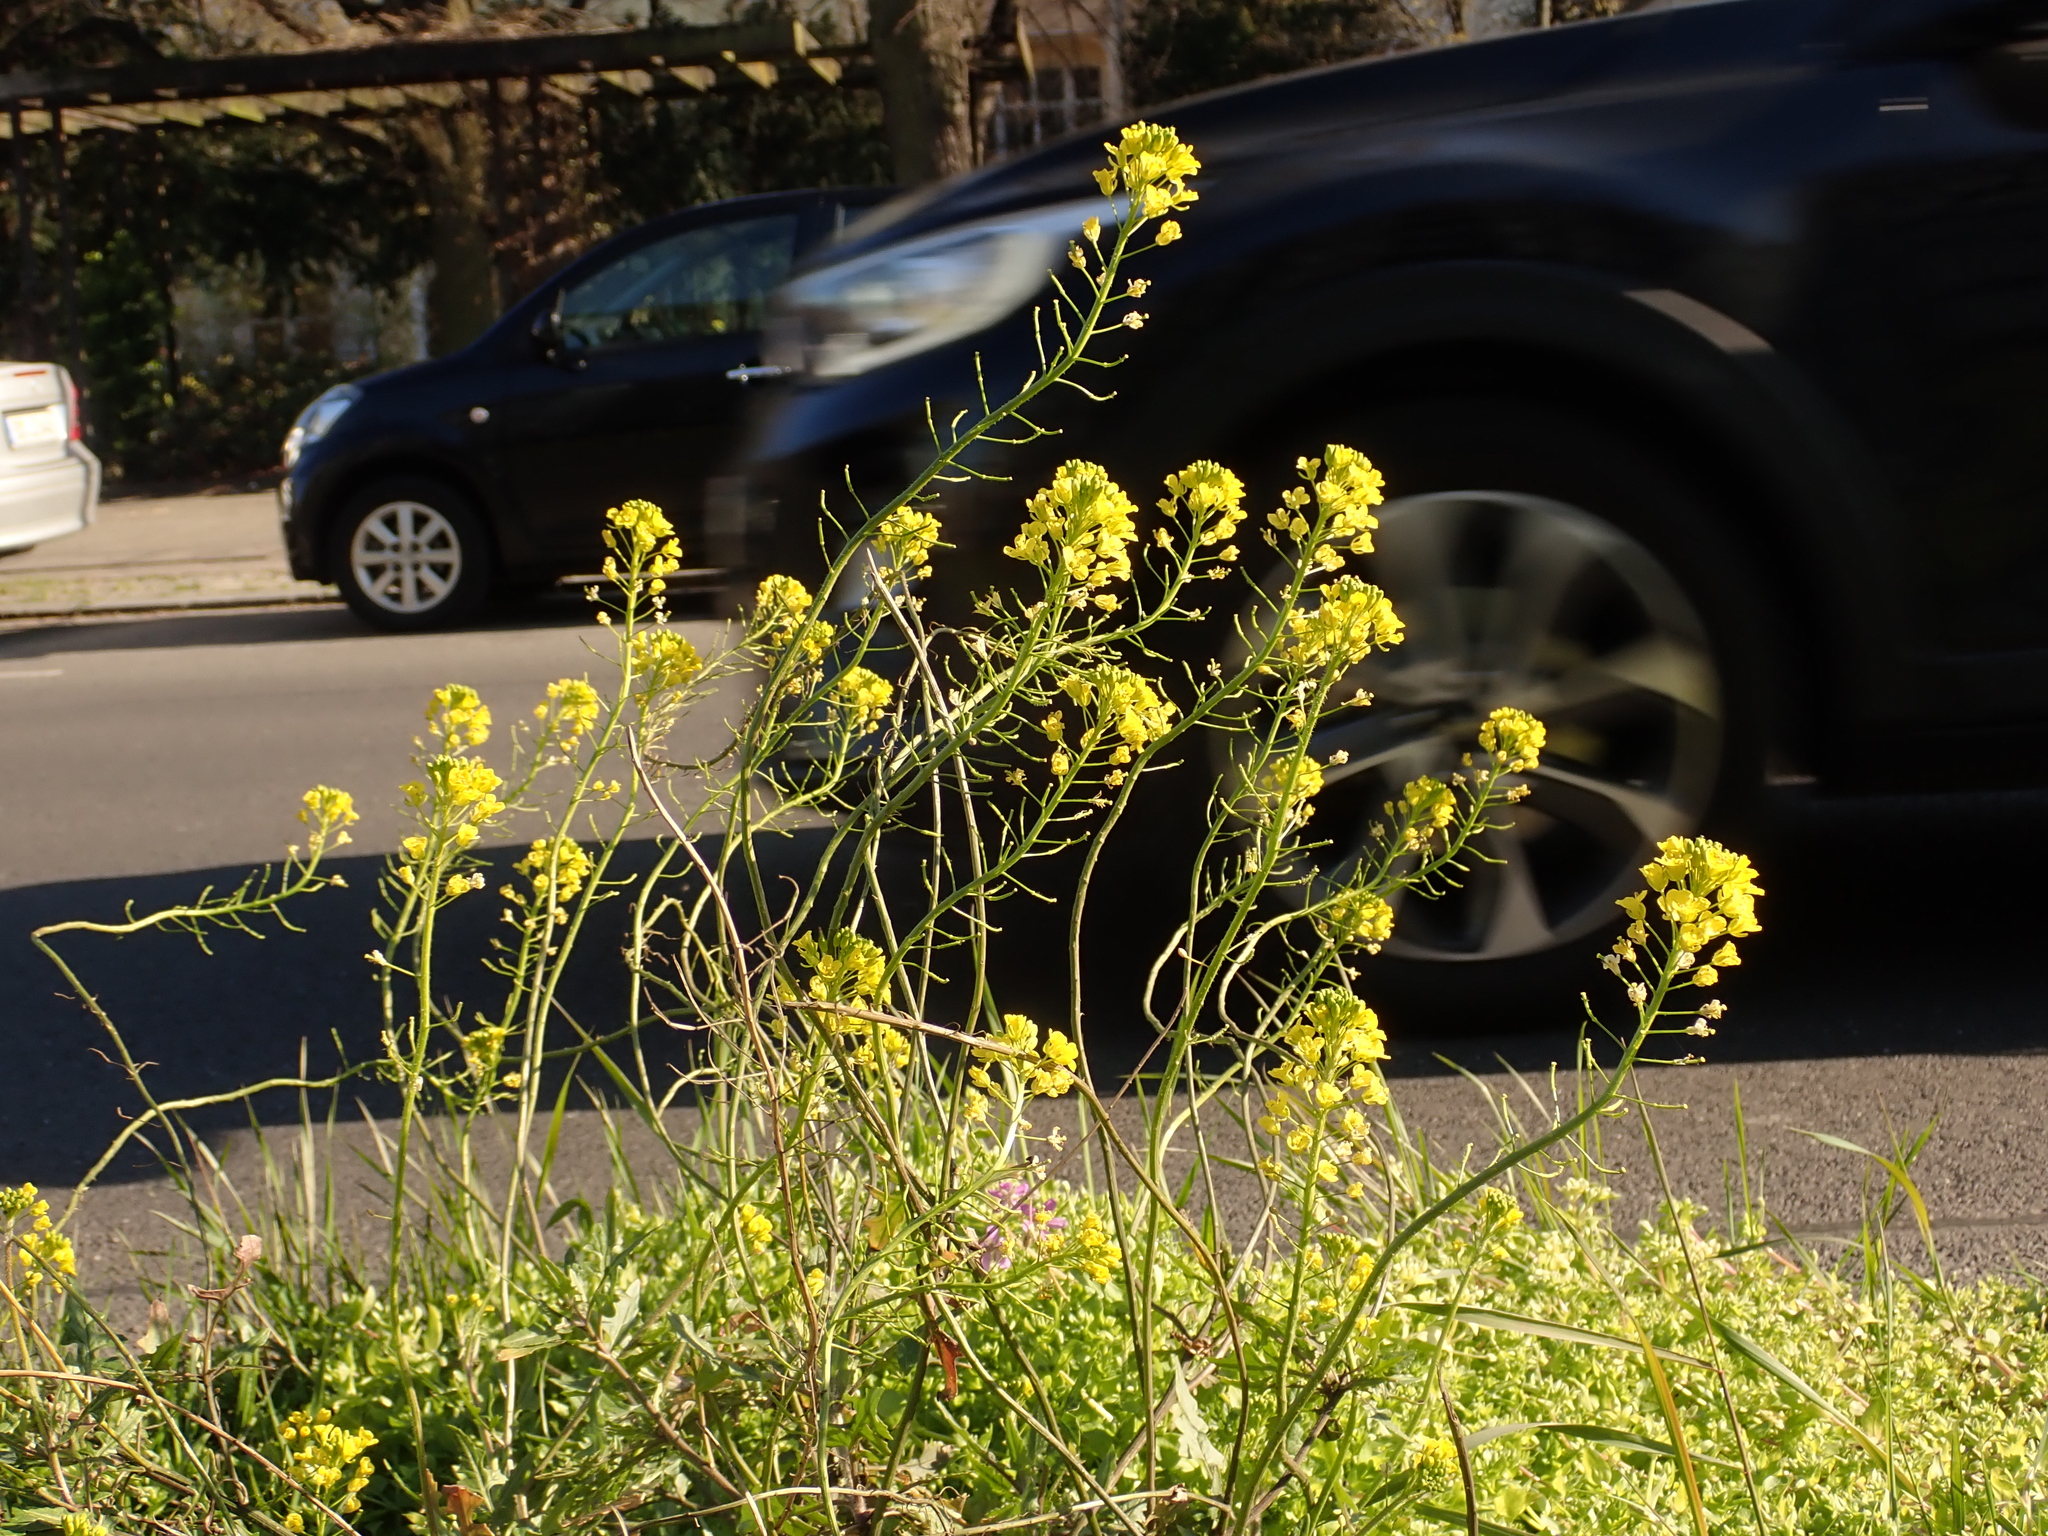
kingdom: Plantae
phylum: Tracheophyta
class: Magnoliopsida
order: Brassicales
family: Brassicaceae
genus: Sisymbrium
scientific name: Sisymbrium loeselii
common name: False london-rocket
